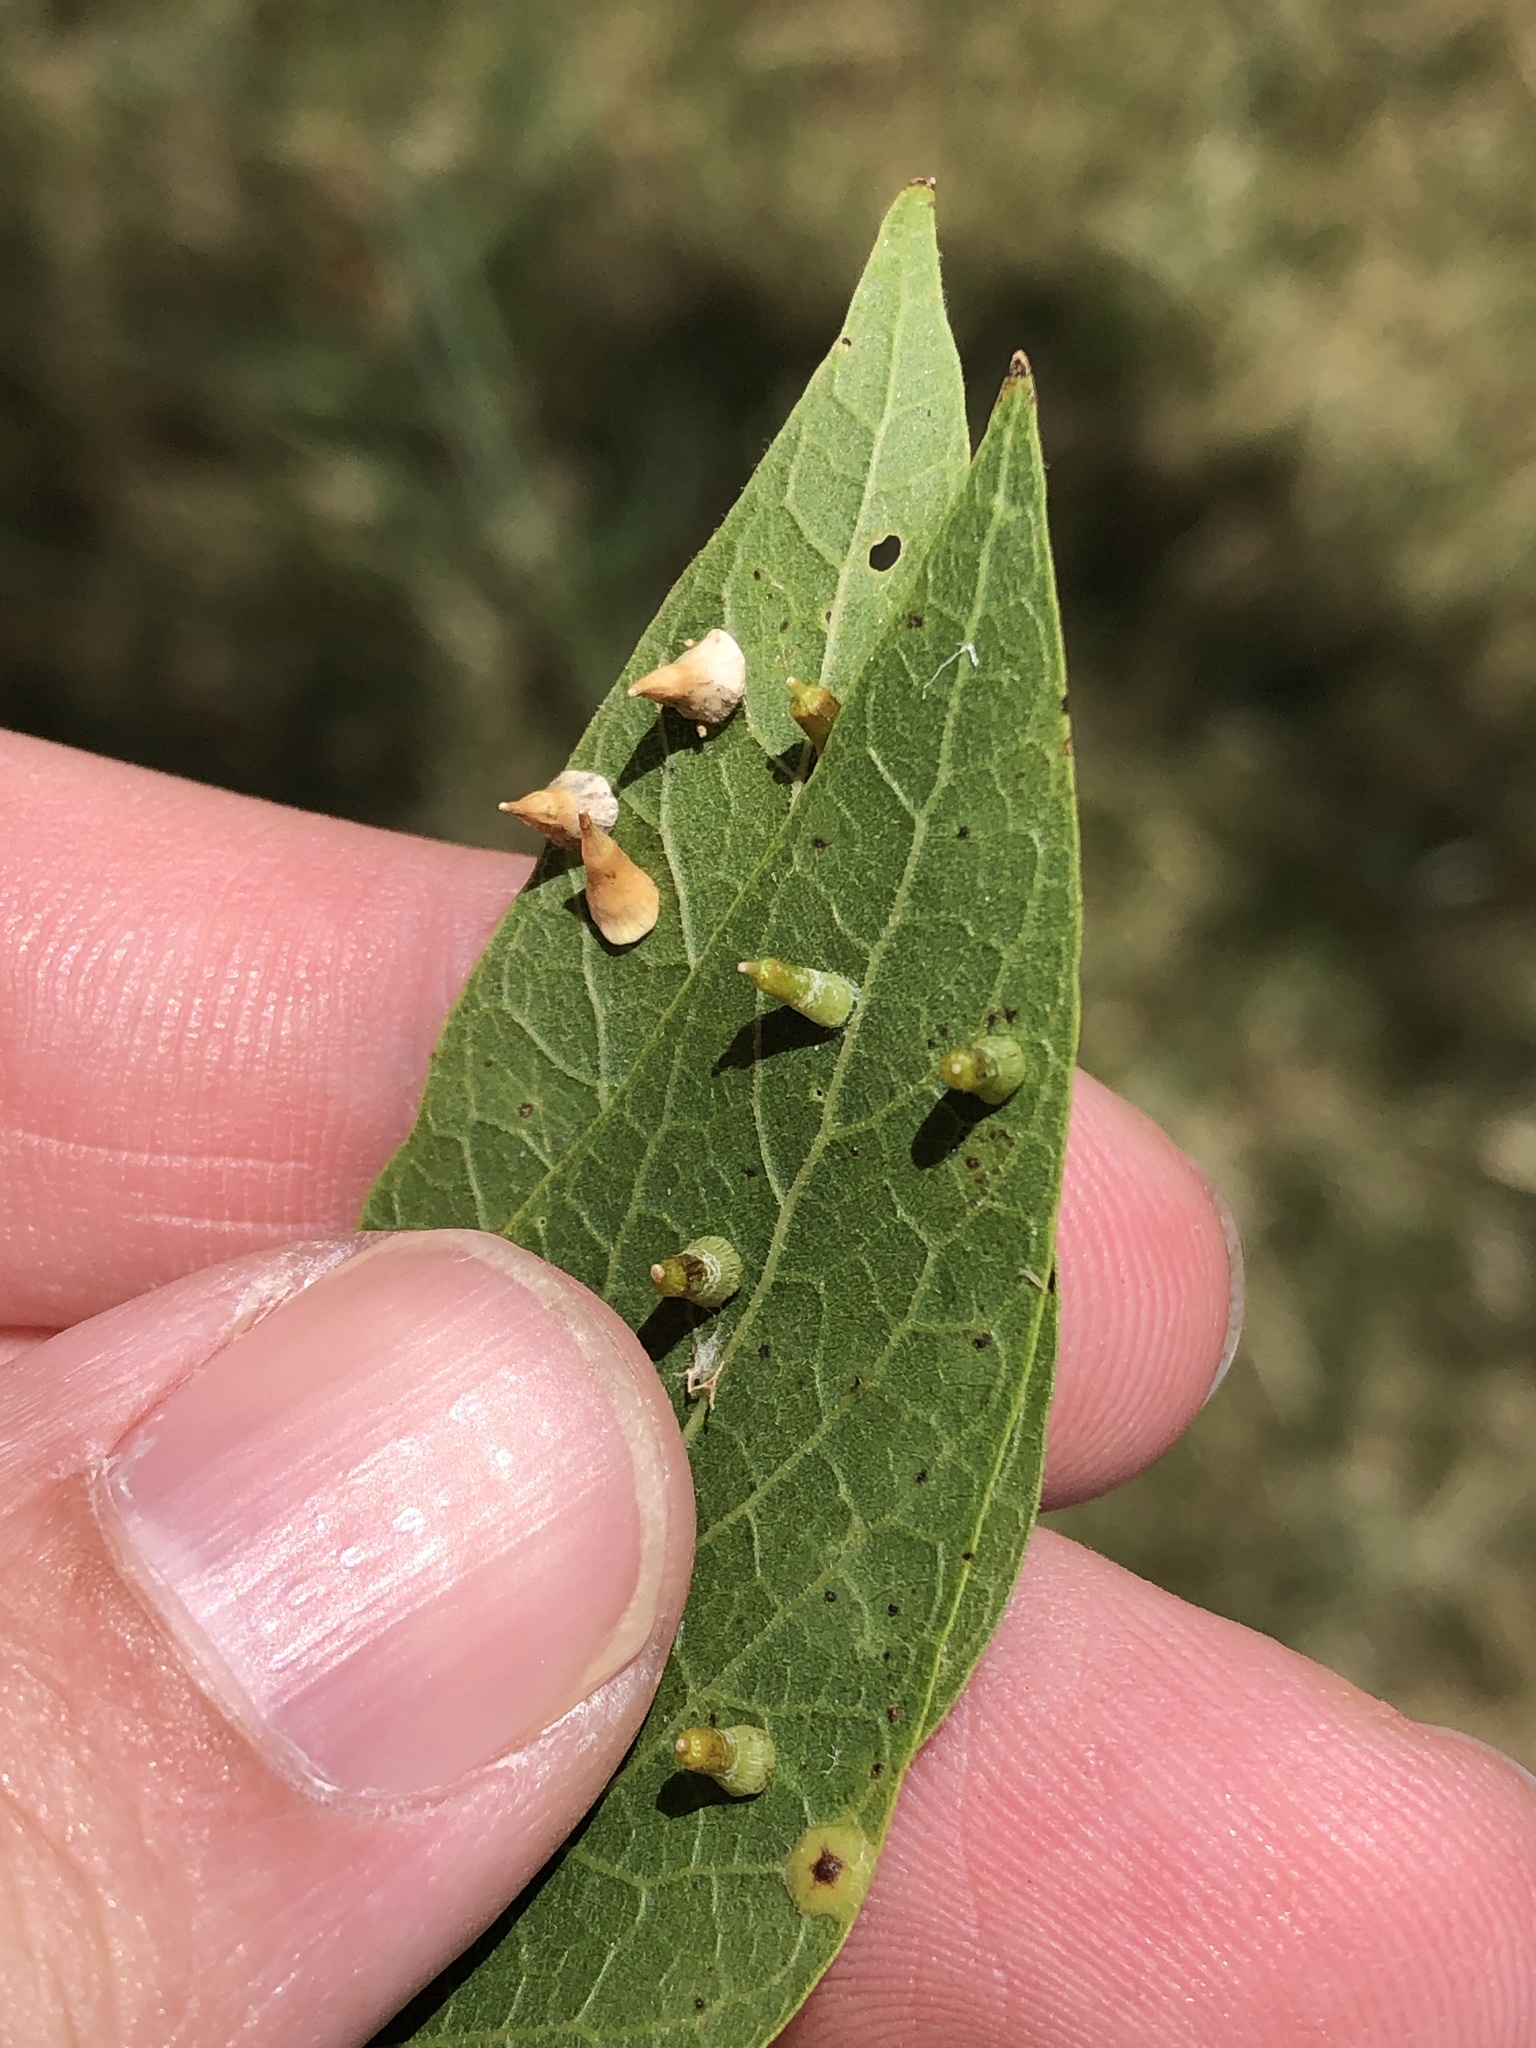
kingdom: Animalia
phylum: Arthropoda
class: Insecta
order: Diptera
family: Cecidomyiidae
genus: Celticecis
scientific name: Celticecis spiniformis
